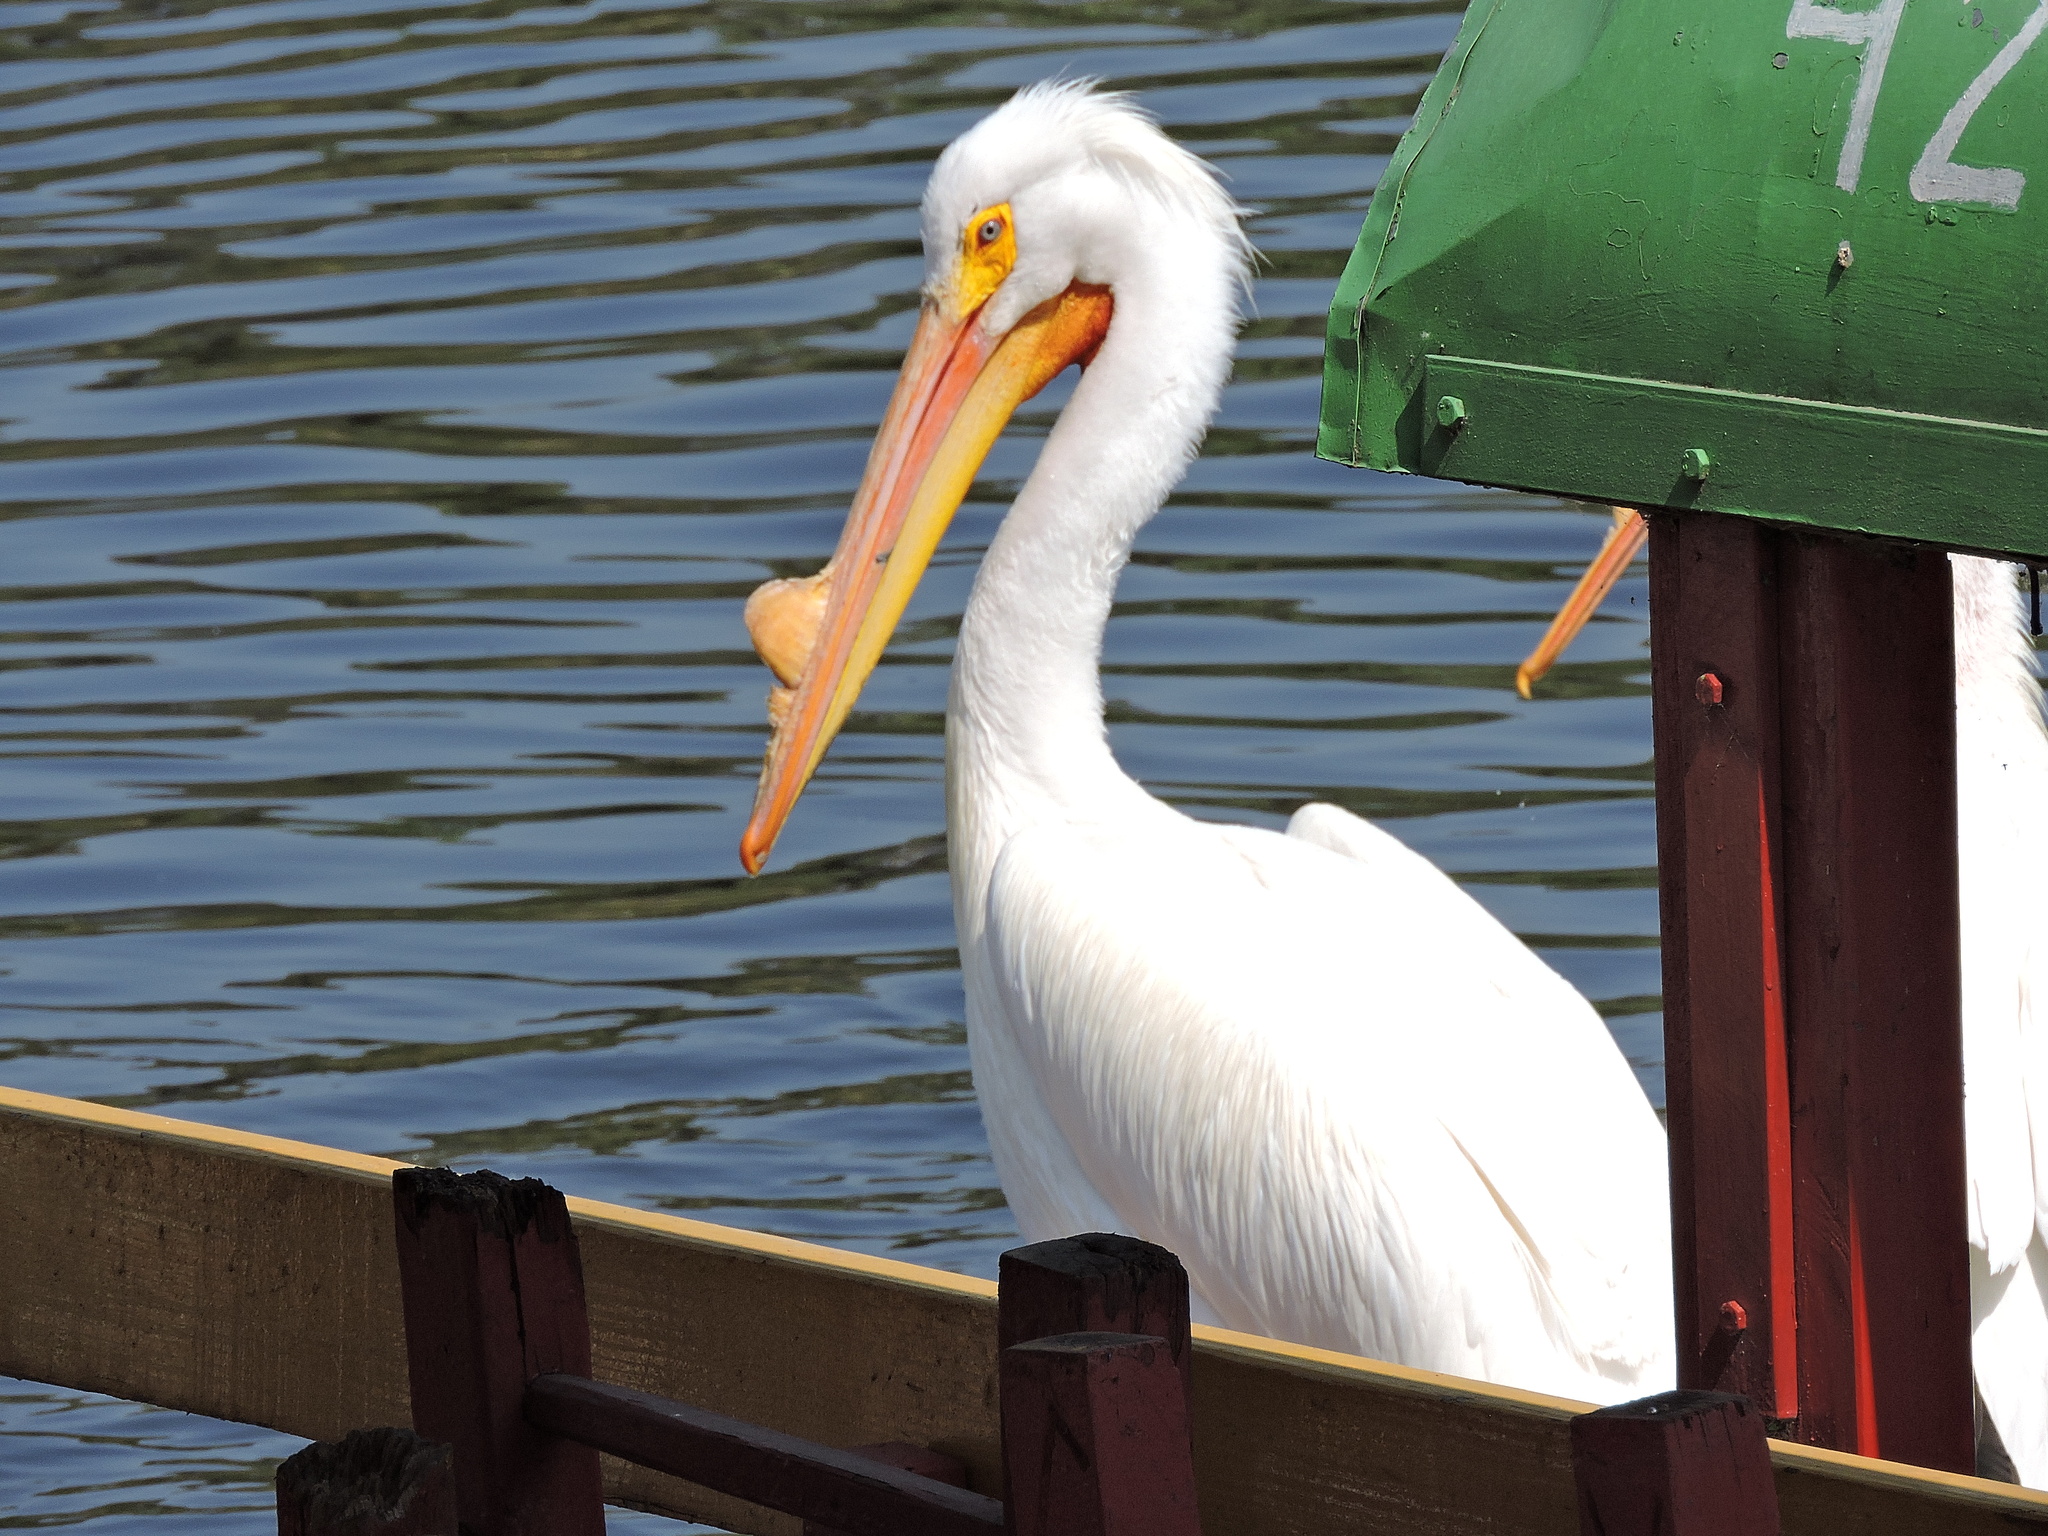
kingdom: Animalia
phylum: Chordata
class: Aves
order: Pelecaniformes
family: Pelecanidae
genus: Pelecanus
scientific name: Pelecanus erythrorhynchos
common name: American white pelican
